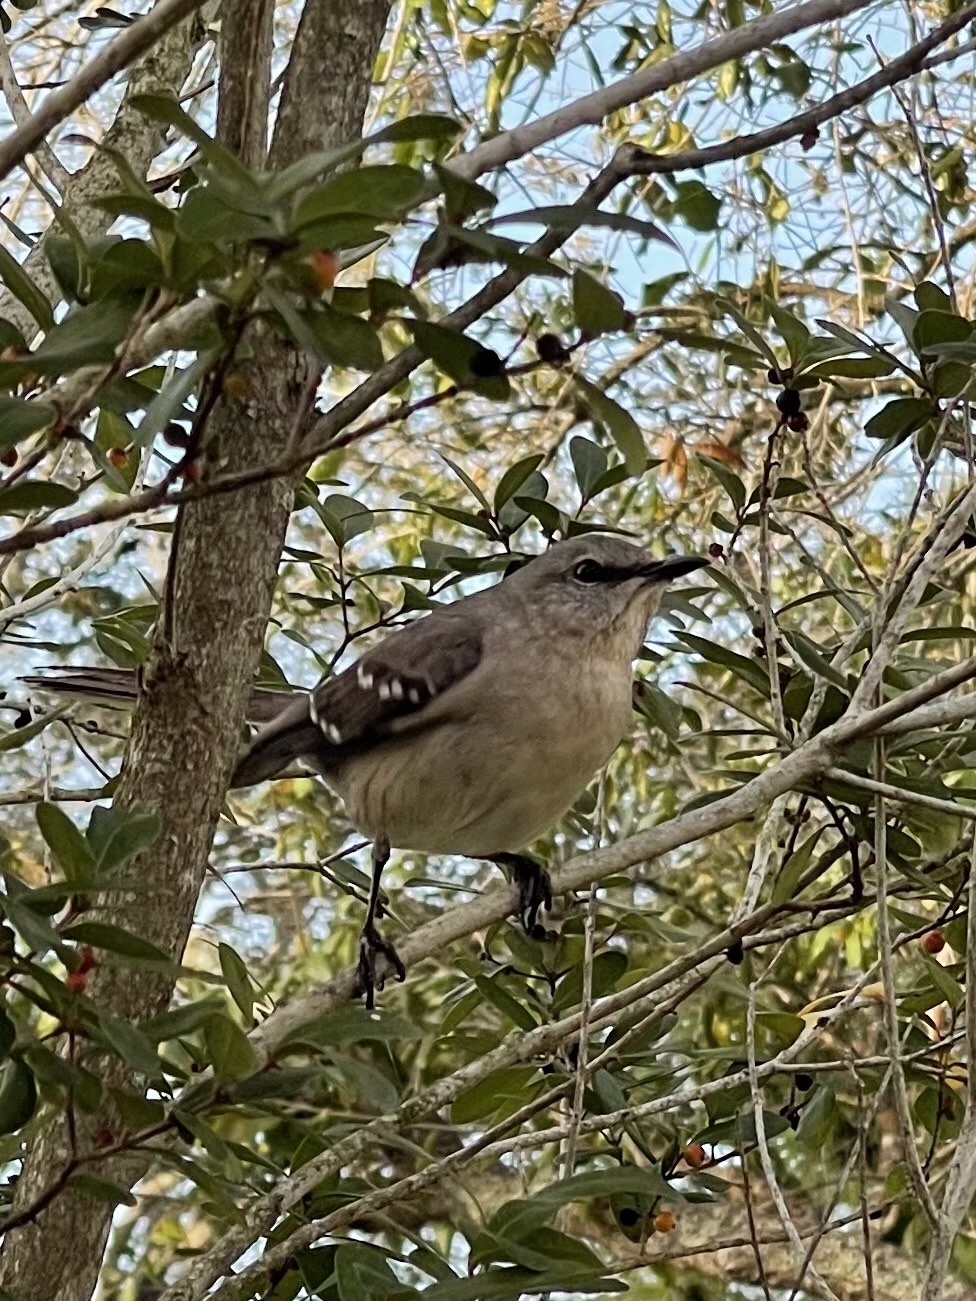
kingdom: Animalia
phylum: Chordata
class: Aves
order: Passeriformes
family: Mimidae
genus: Mimus
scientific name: Mimus polyglottos
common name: Northern mockingbird
